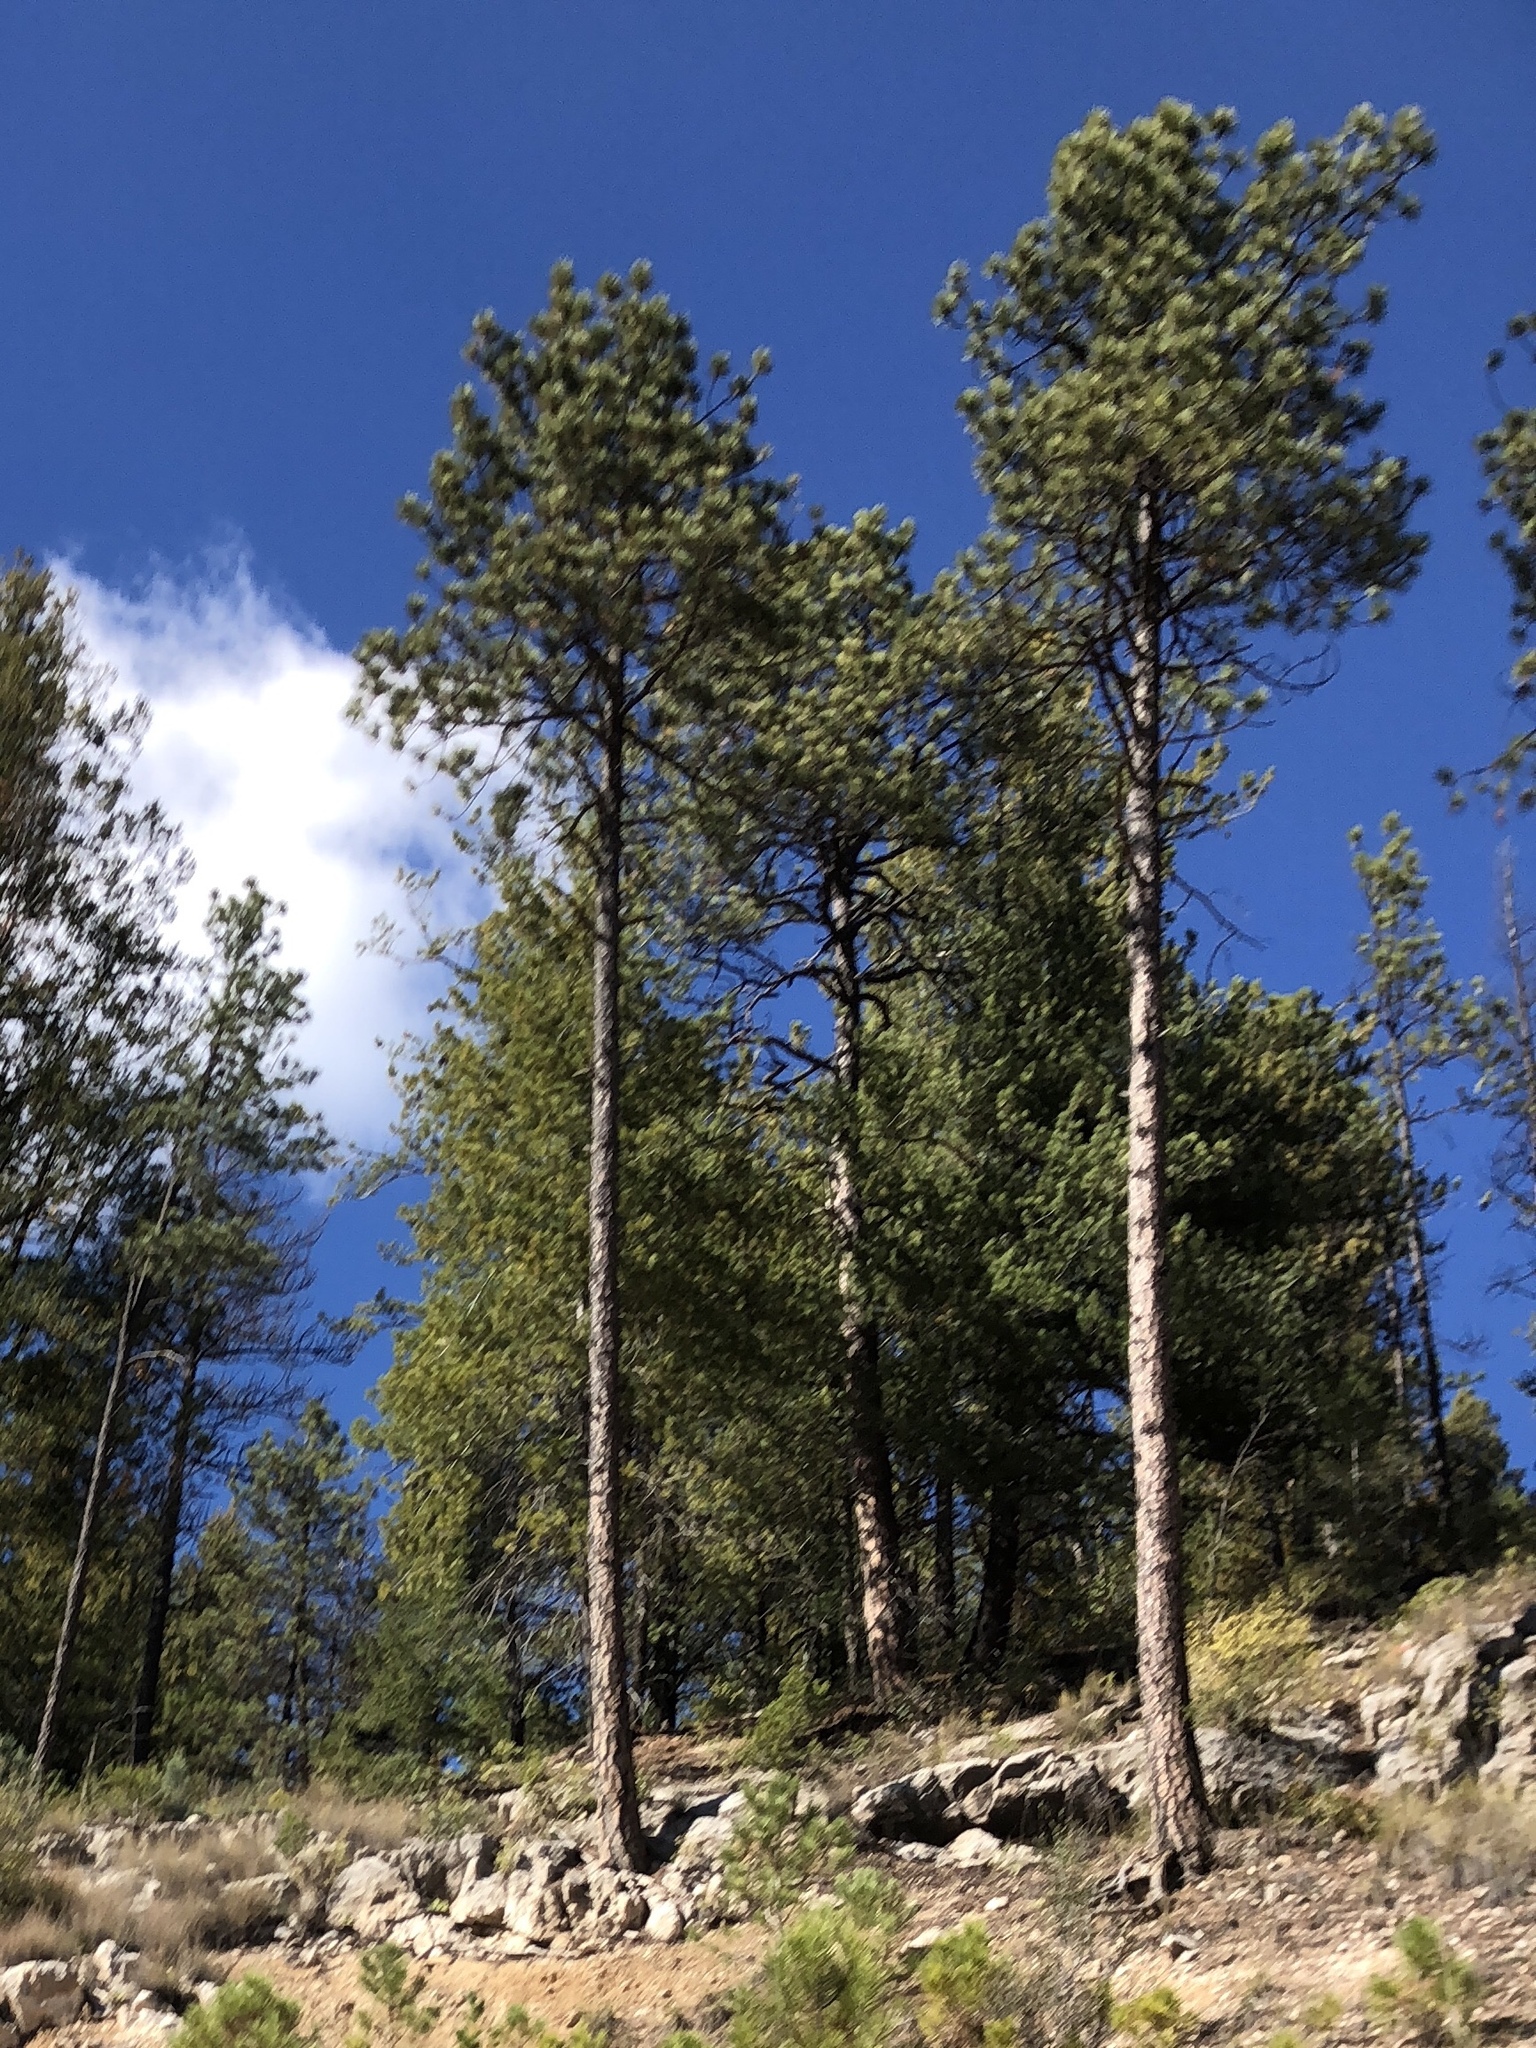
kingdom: Plantae
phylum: Tracheophyta
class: Pinopsida
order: Pinales
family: Pinaceae
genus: Pinus
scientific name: Pinus ponderosa
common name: Western yellow-pine
